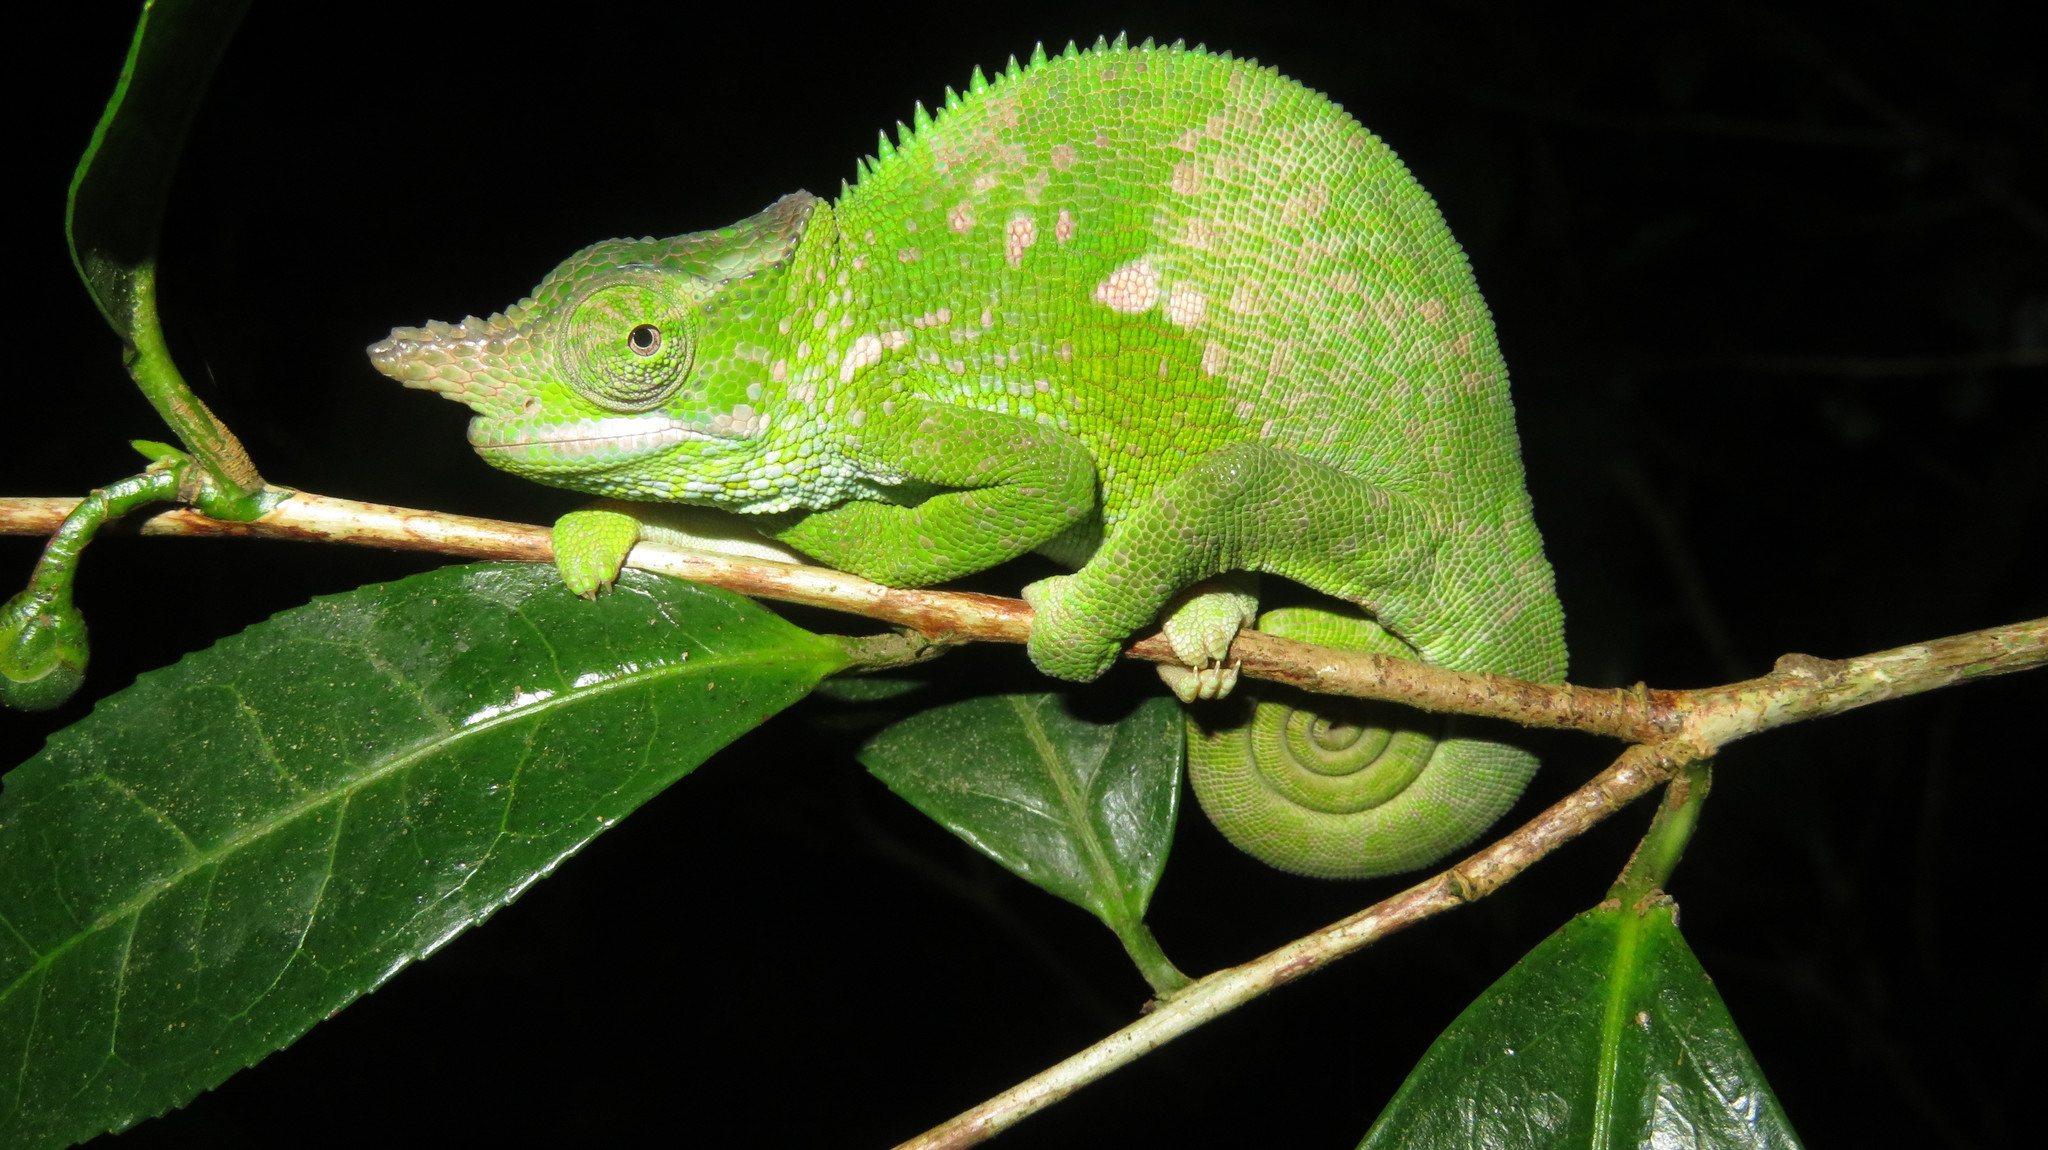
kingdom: Animalia
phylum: Chordata
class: Squamata
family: Chamaeleonidae
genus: Kinyongia
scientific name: Kinyongia multituberculata
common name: West usambara blade-horned chameleon
